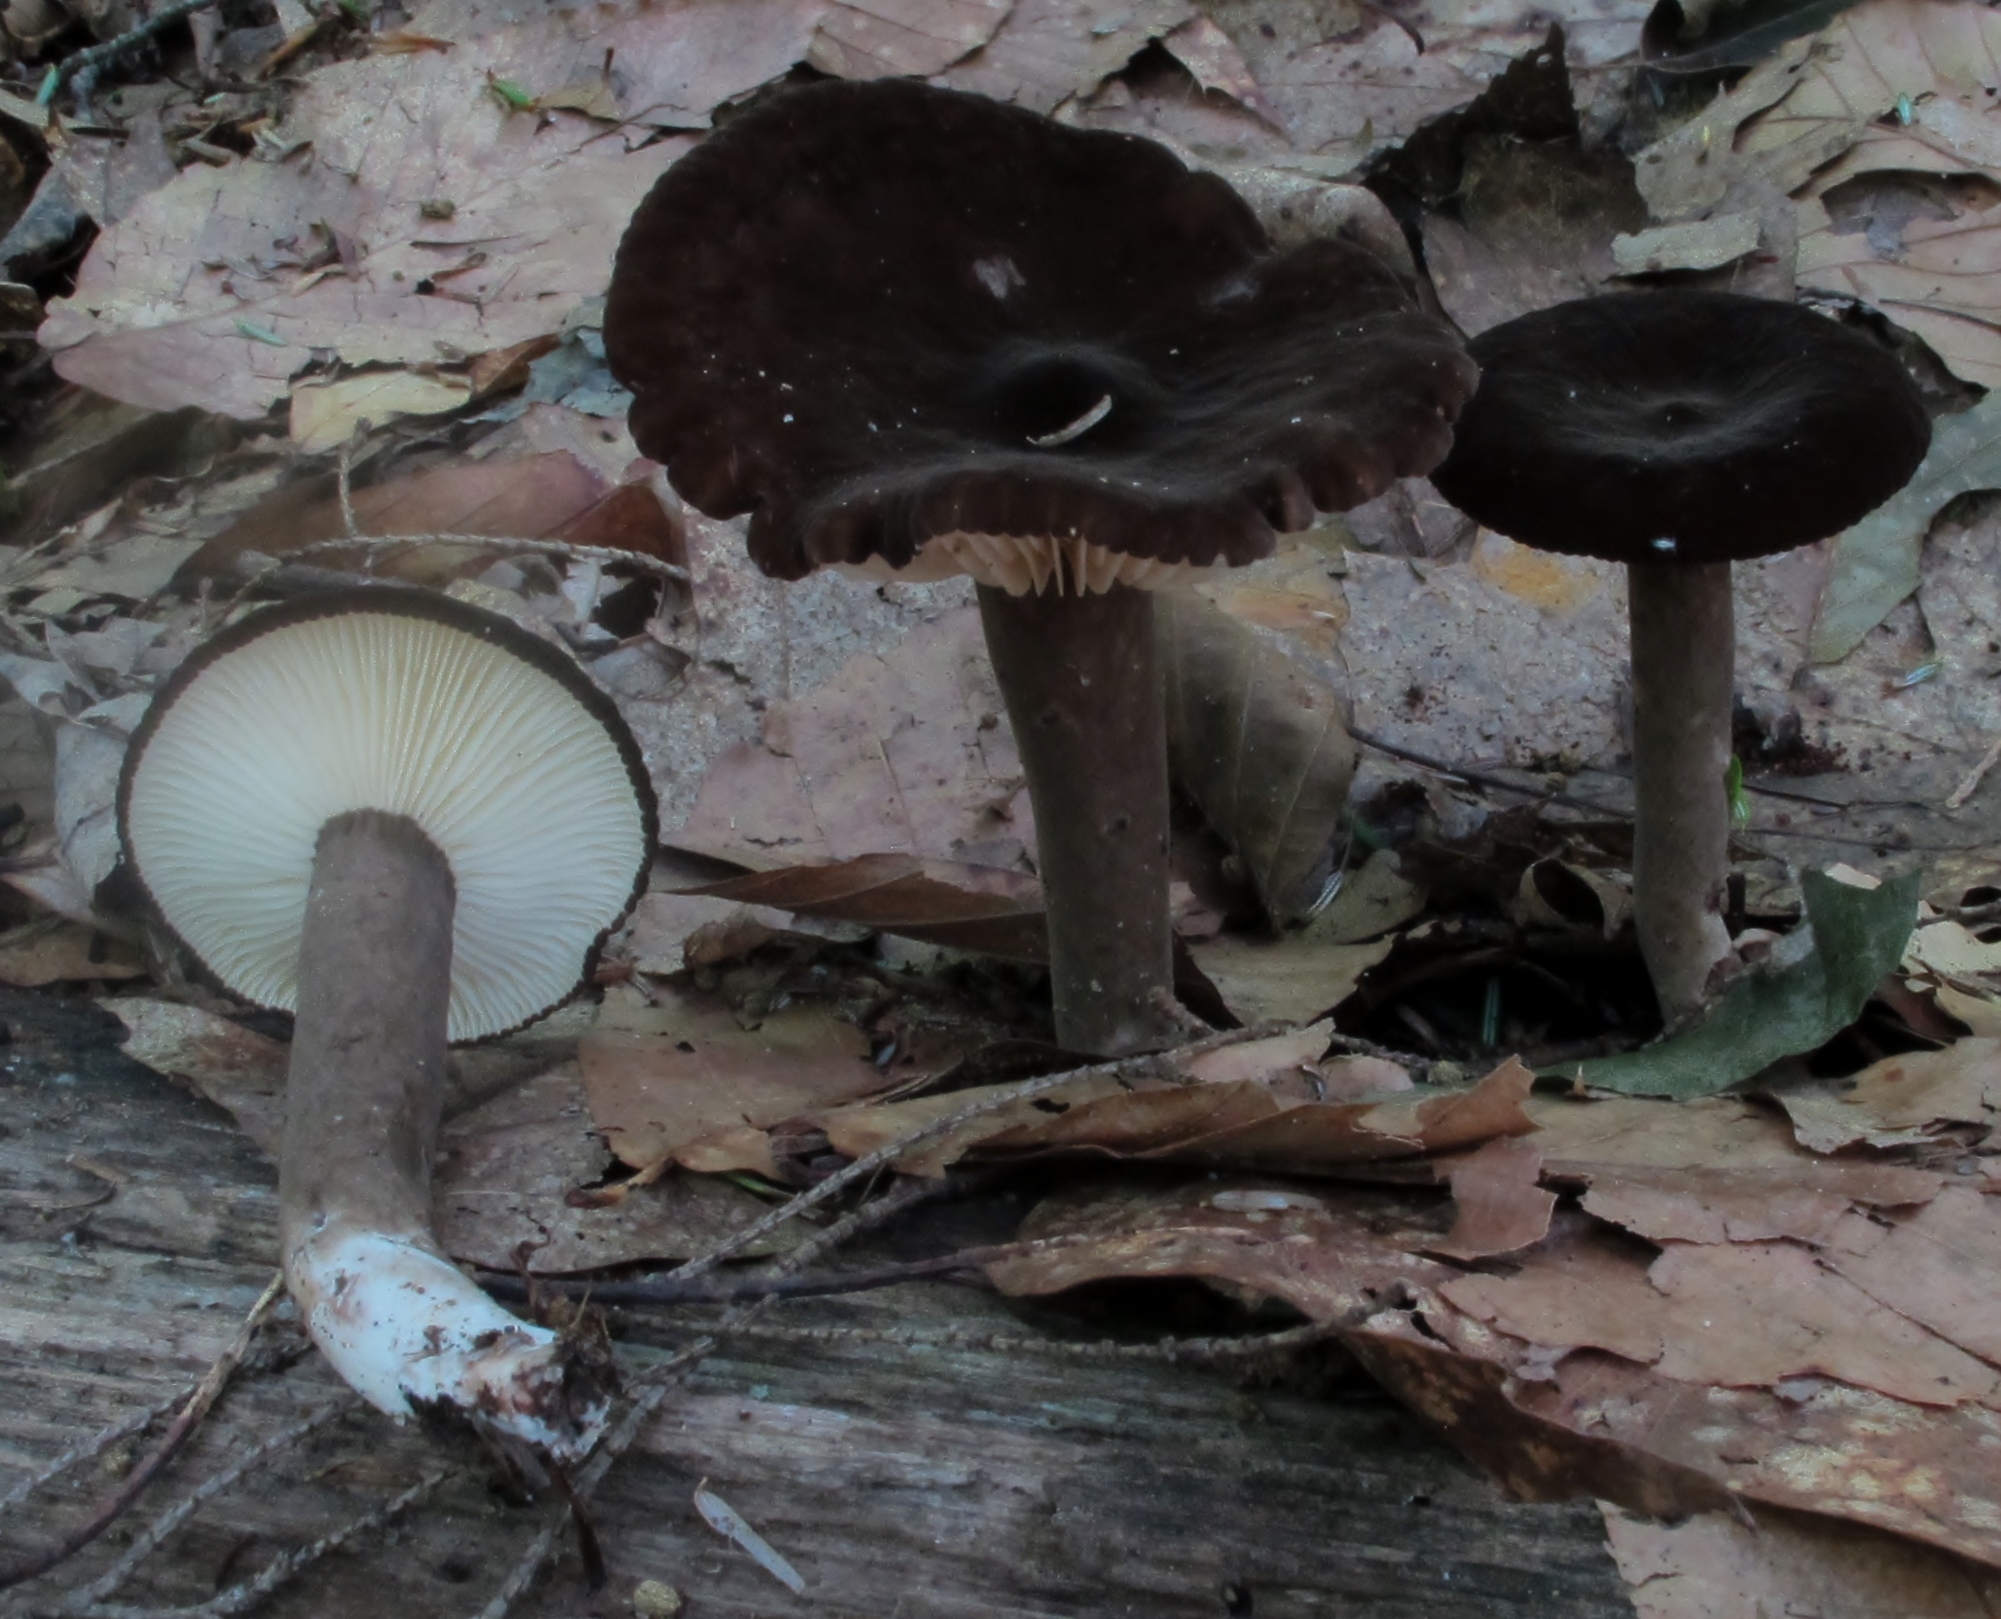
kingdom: Fungi
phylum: Basidiomycota
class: Agaricomycetes
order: Russulales
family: Russulaceae
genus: Lactarius
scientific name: Lactarius lignyotus
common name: Velvet milkcap
